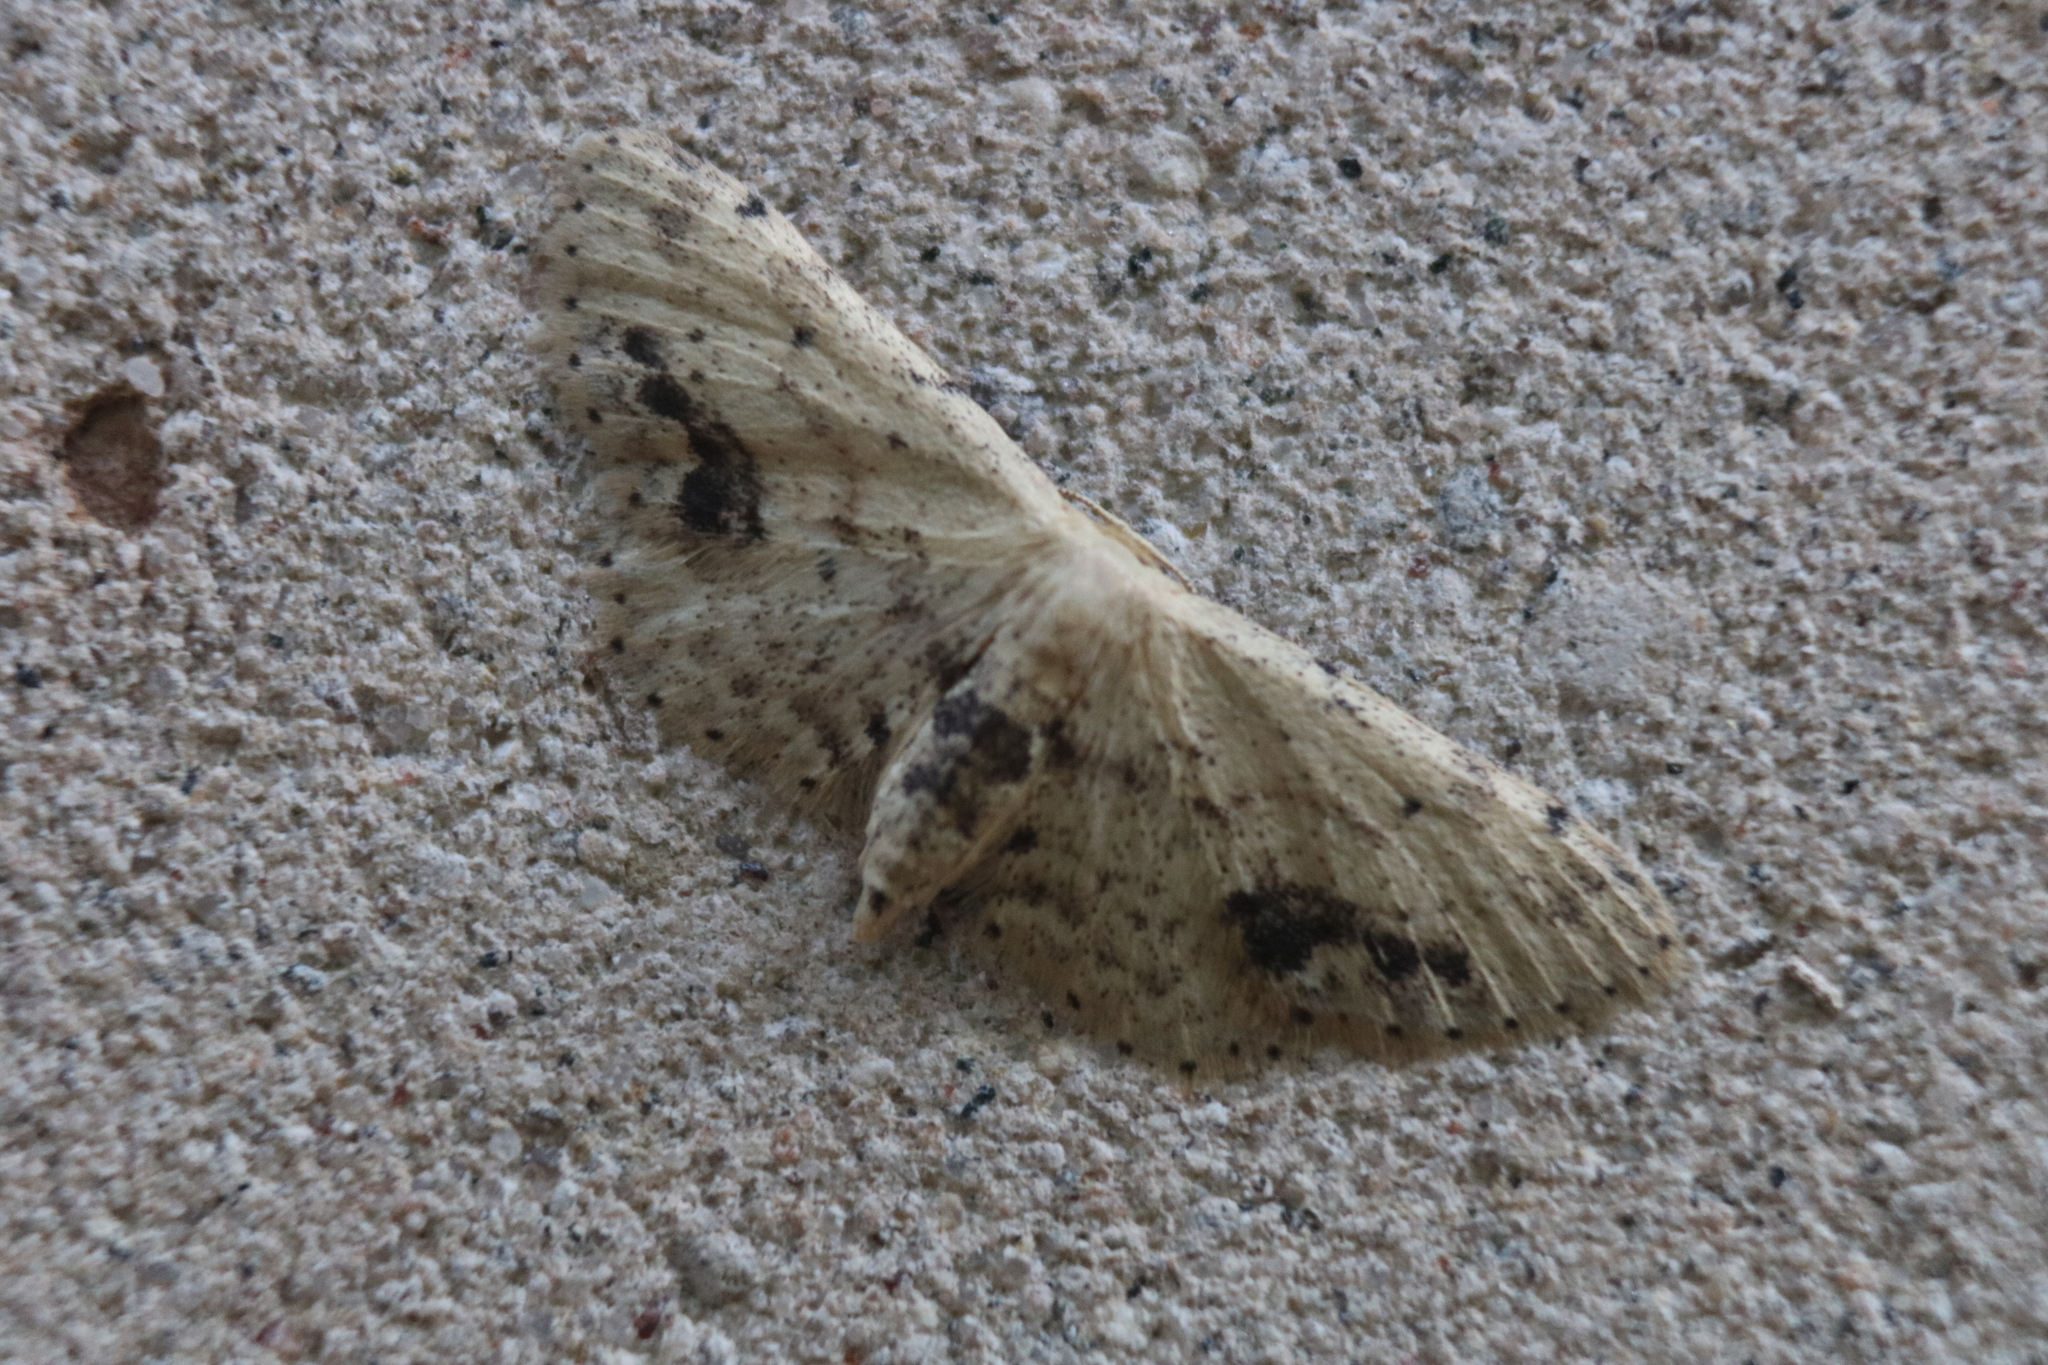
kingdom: Animalia
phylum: Arthropoda
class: Insecta
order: Lepidoptera
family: Geometridae
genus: Idaea
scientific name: Idaea dimidiata
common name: Single-dotted wave
